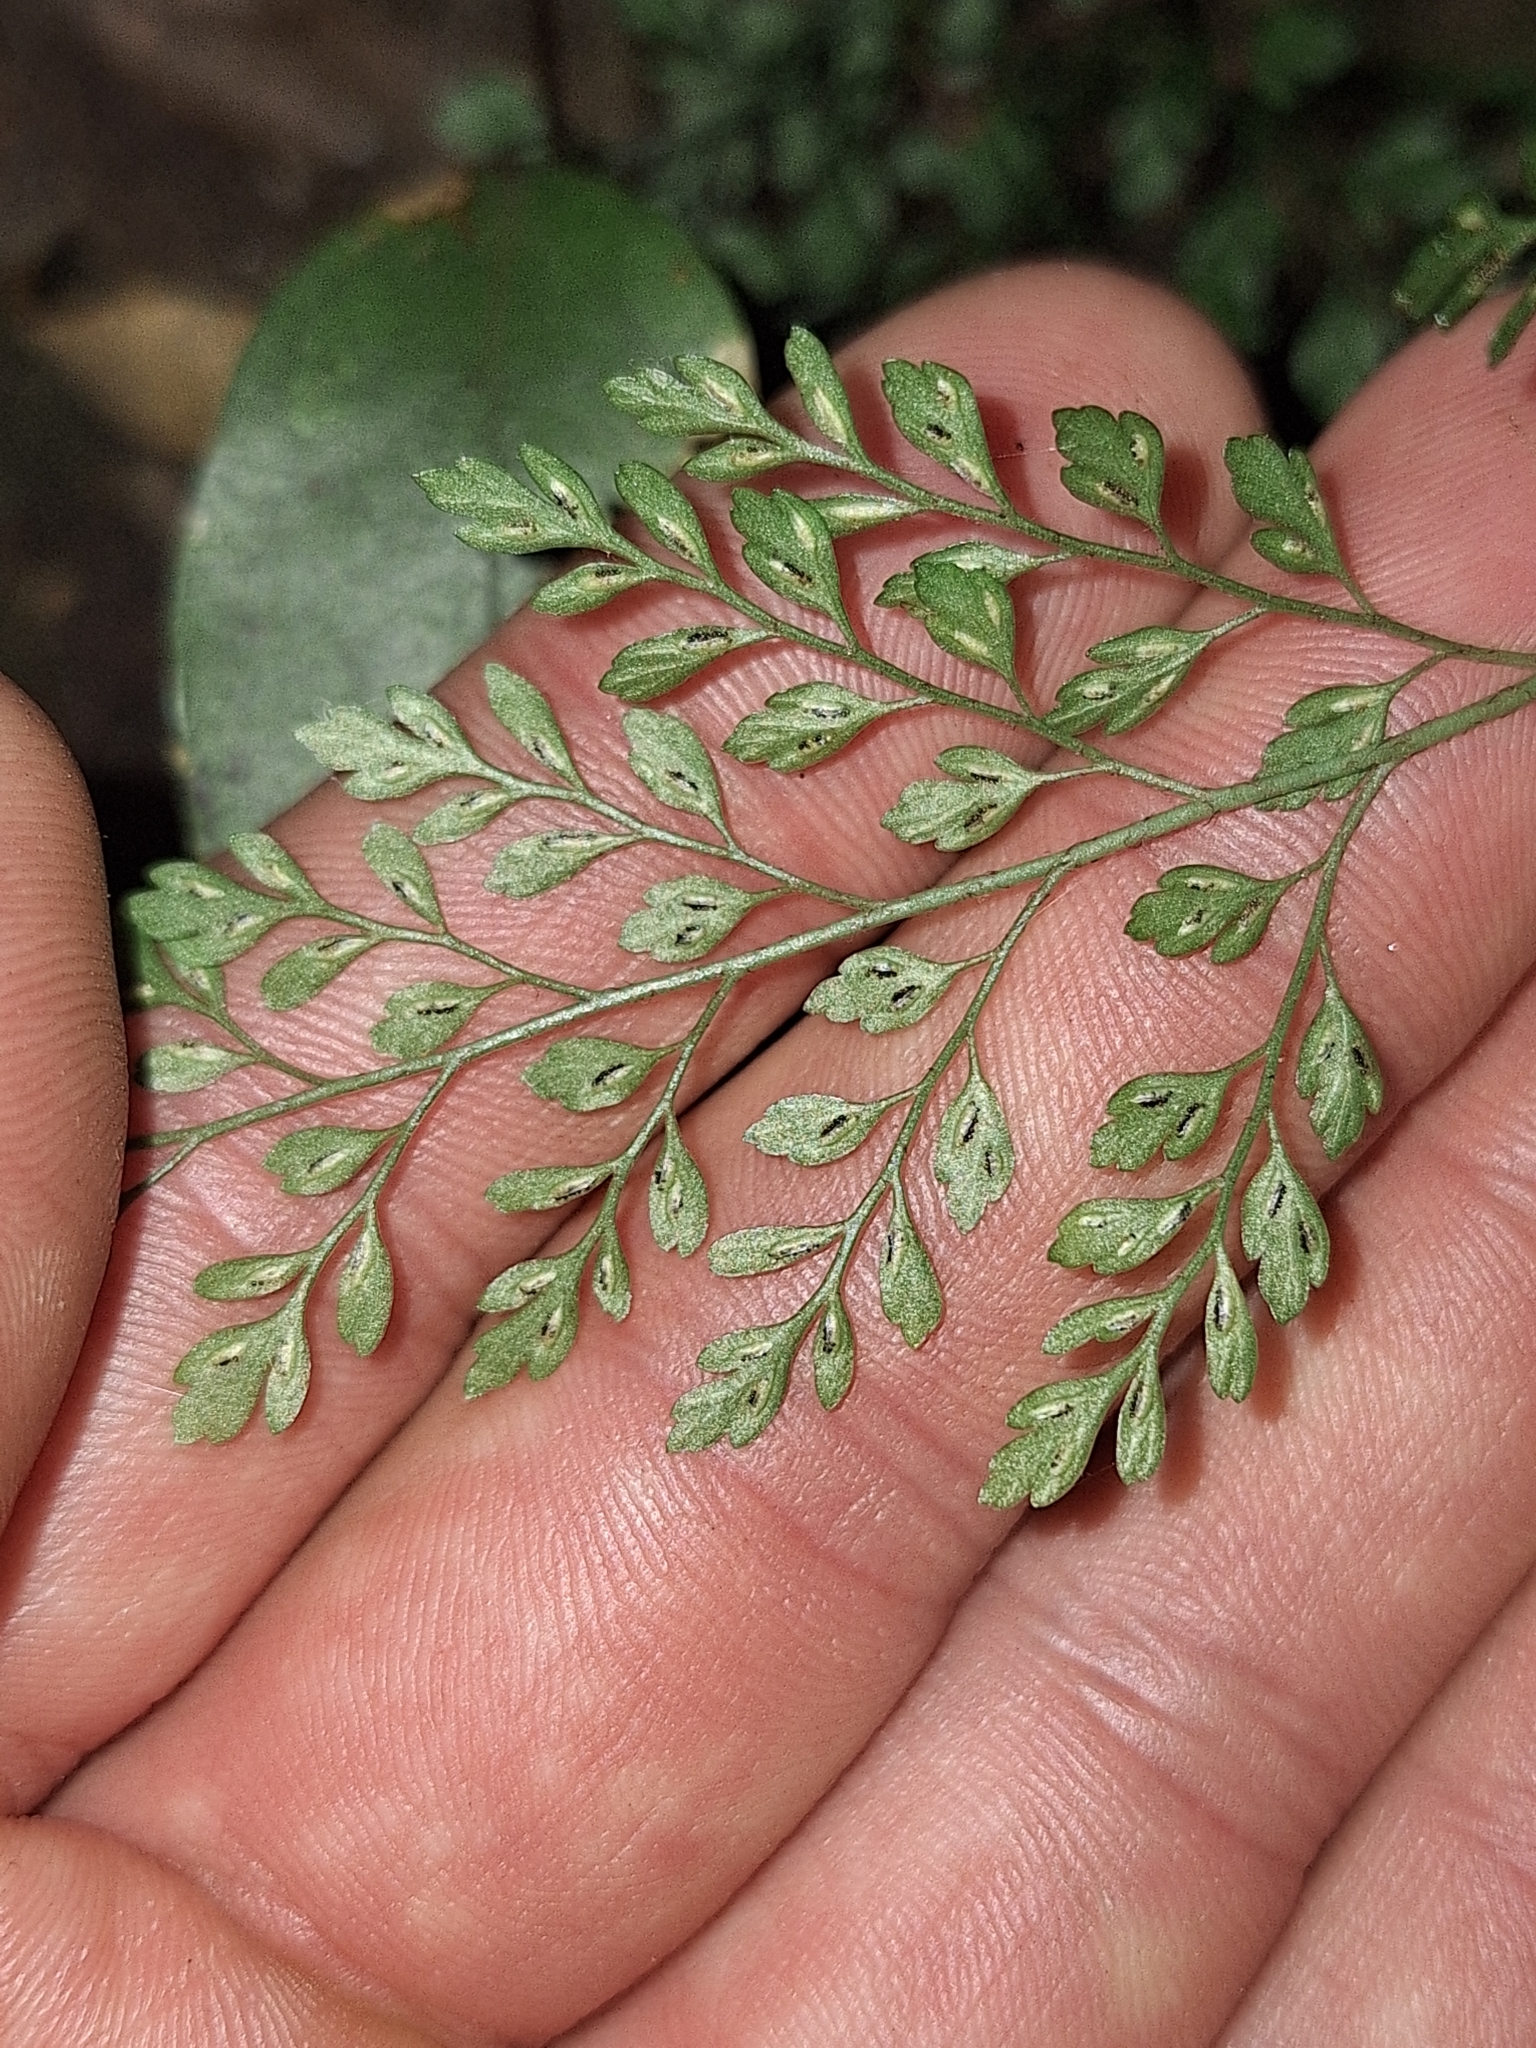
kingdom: Plantae
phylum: Tracheophyta
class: Polypodiopsida
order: Polypodiales
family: Aspleniaceae
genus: Asplenium
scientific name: Asplenium hookerianum
